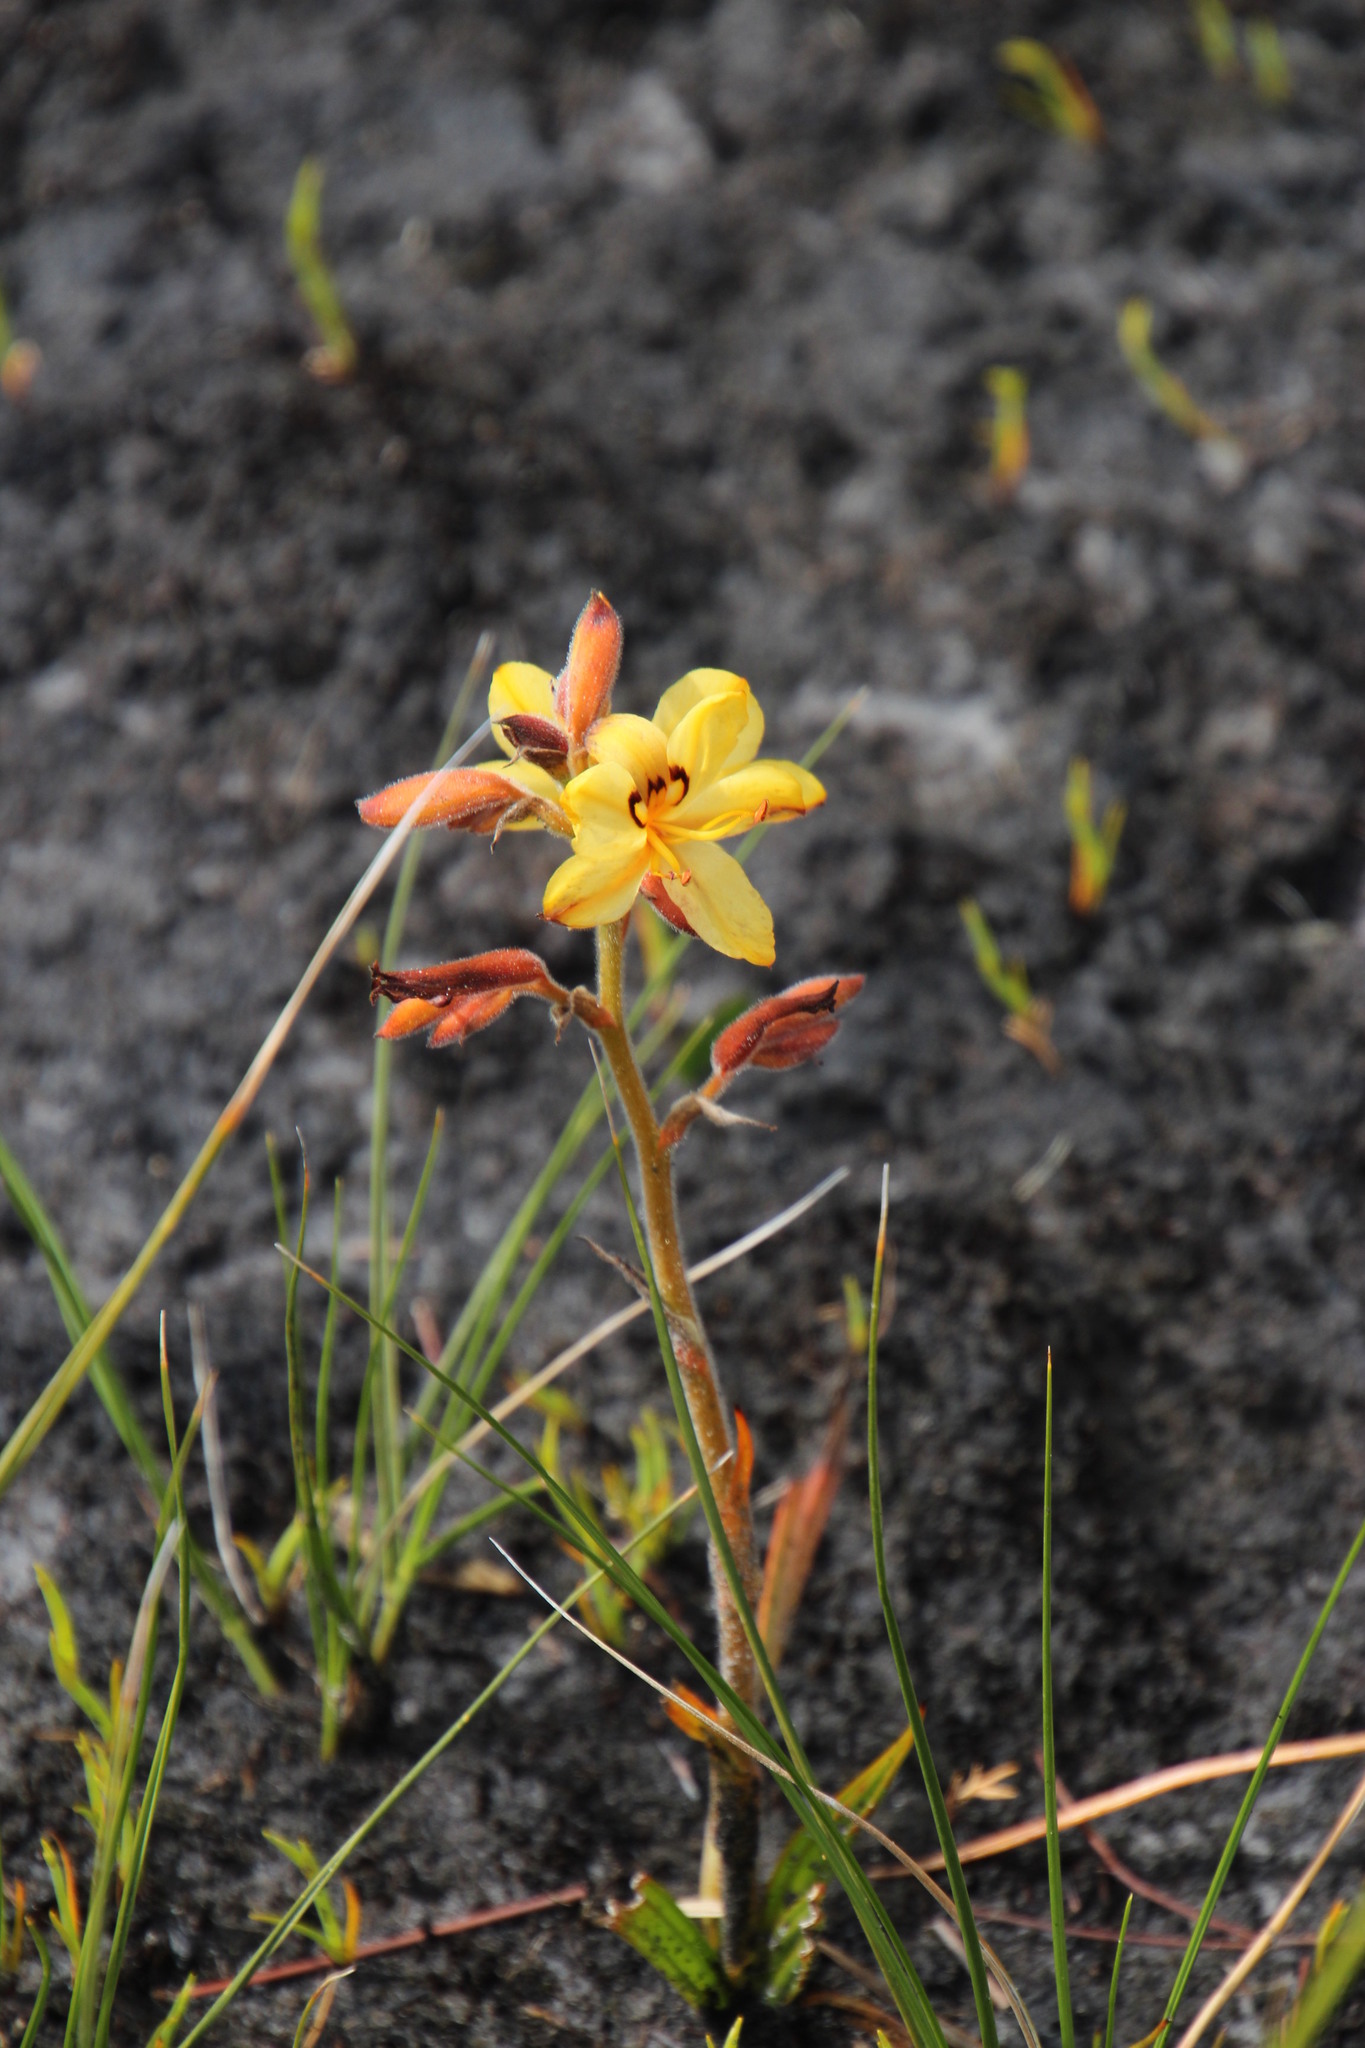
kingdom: Plantae
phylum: Tracheophyta
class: Liliopsida
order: Commelinales
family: Haemodoraceae
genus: Wachendorfia
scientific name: Wachendorfia paniculata
